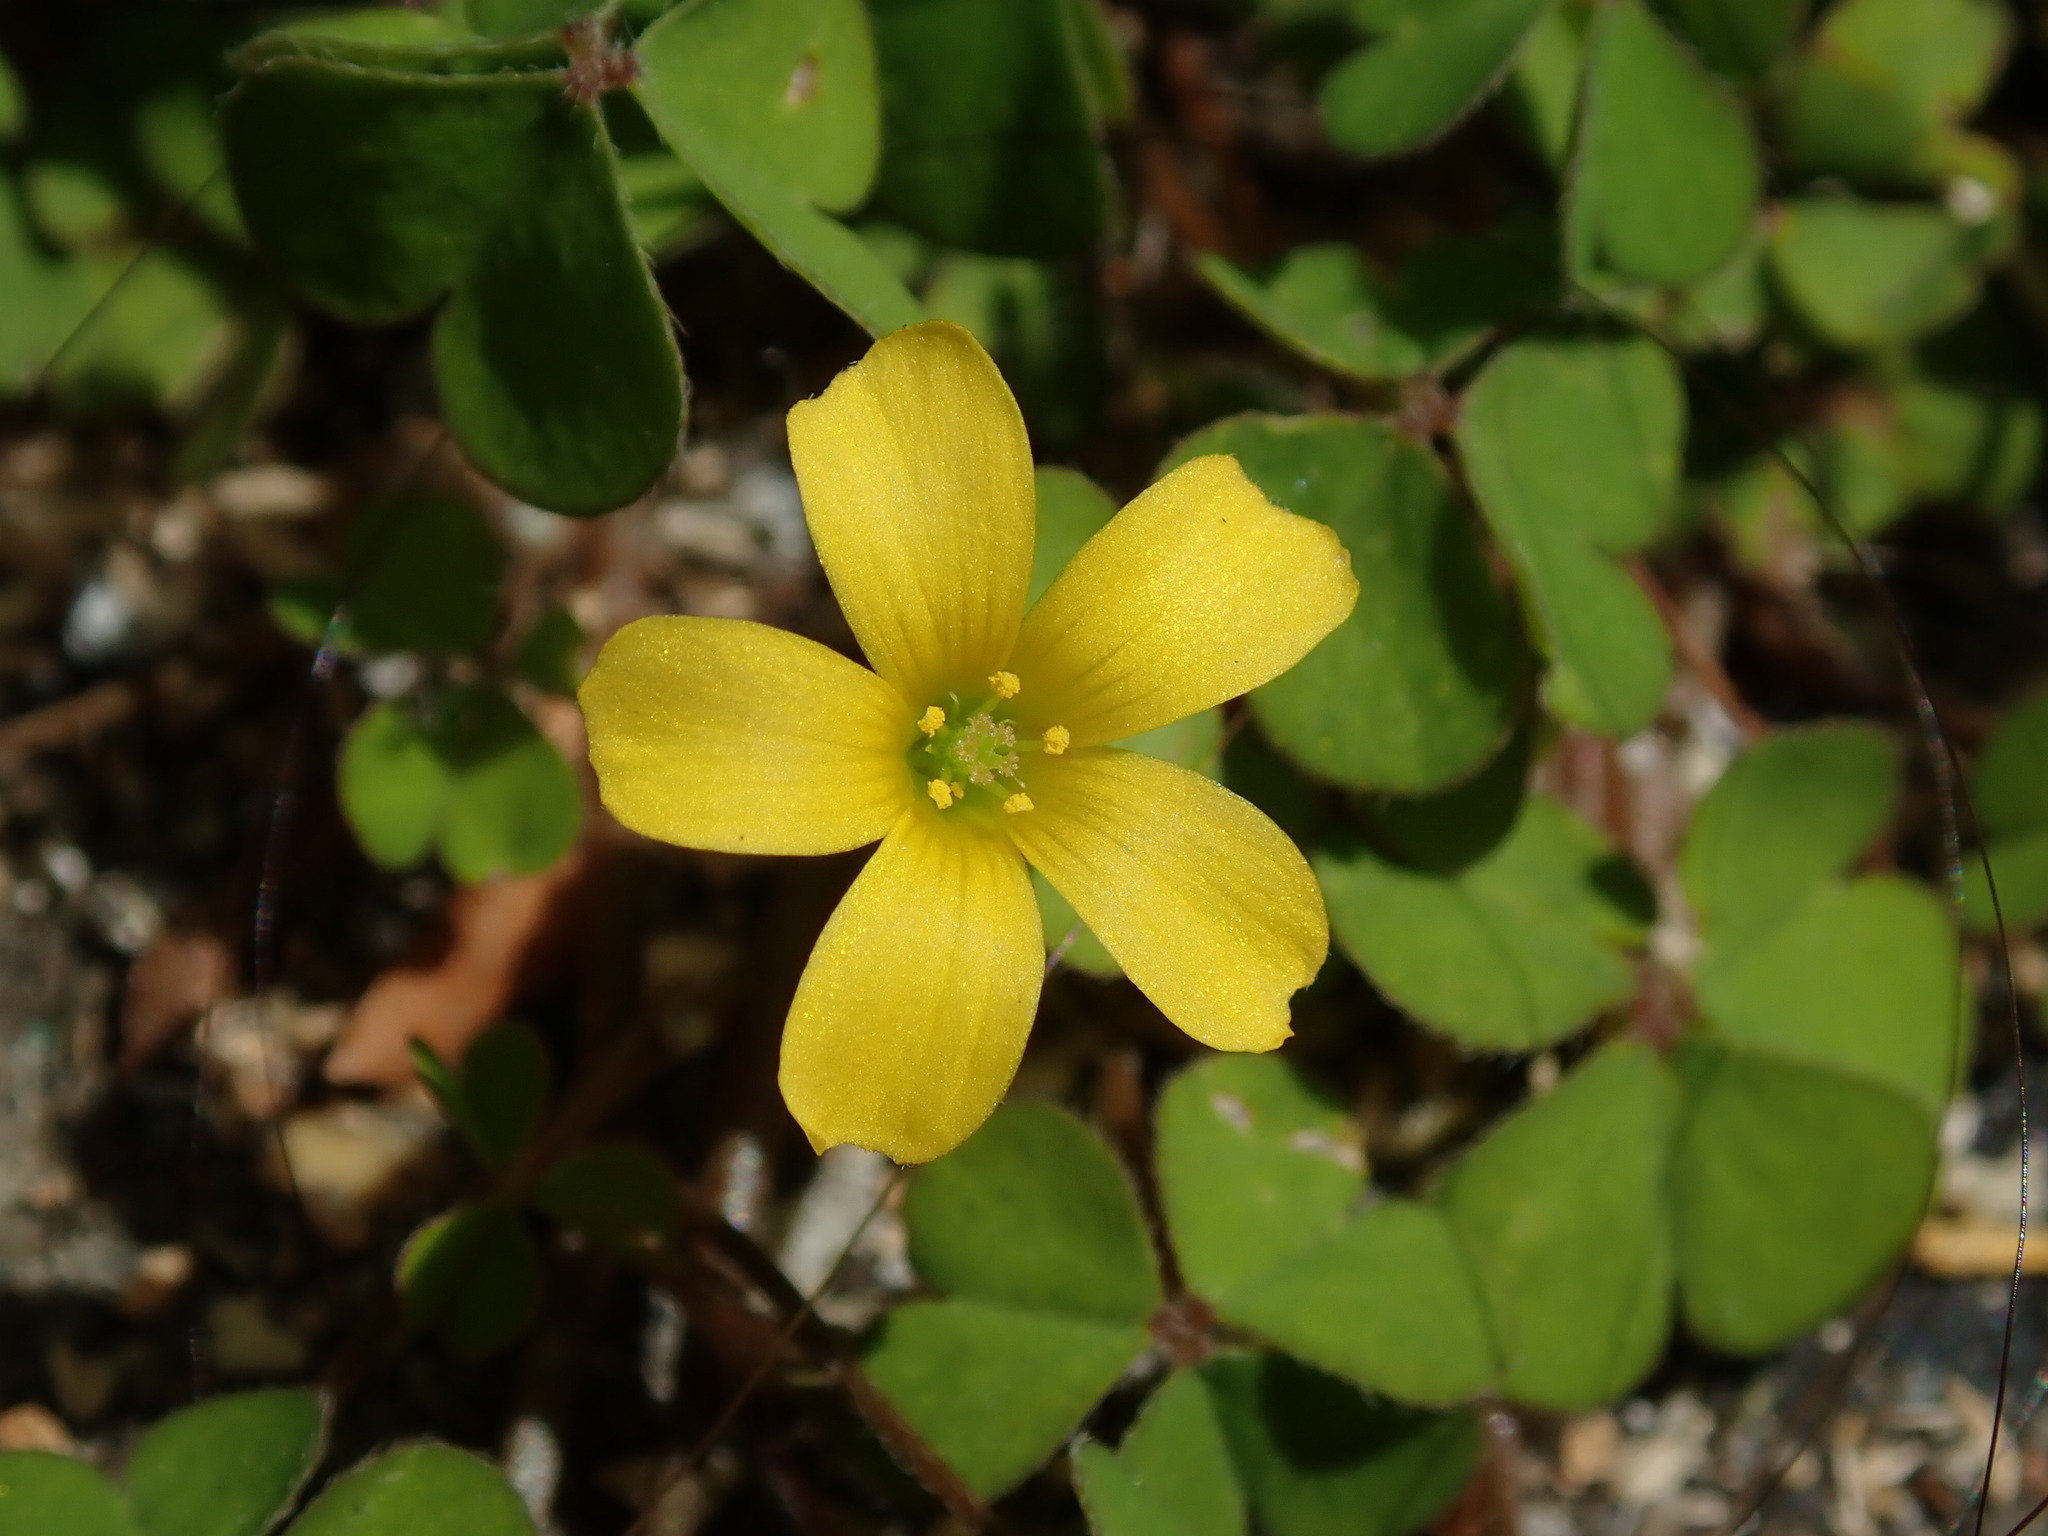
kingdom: Plantae
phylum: Tracheophyta
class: Magnoliopsida
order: Oxalidales
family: Oxalidaceae
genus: Oxalis
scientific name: Oxalis exilis
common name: Least yellow-sorrel
